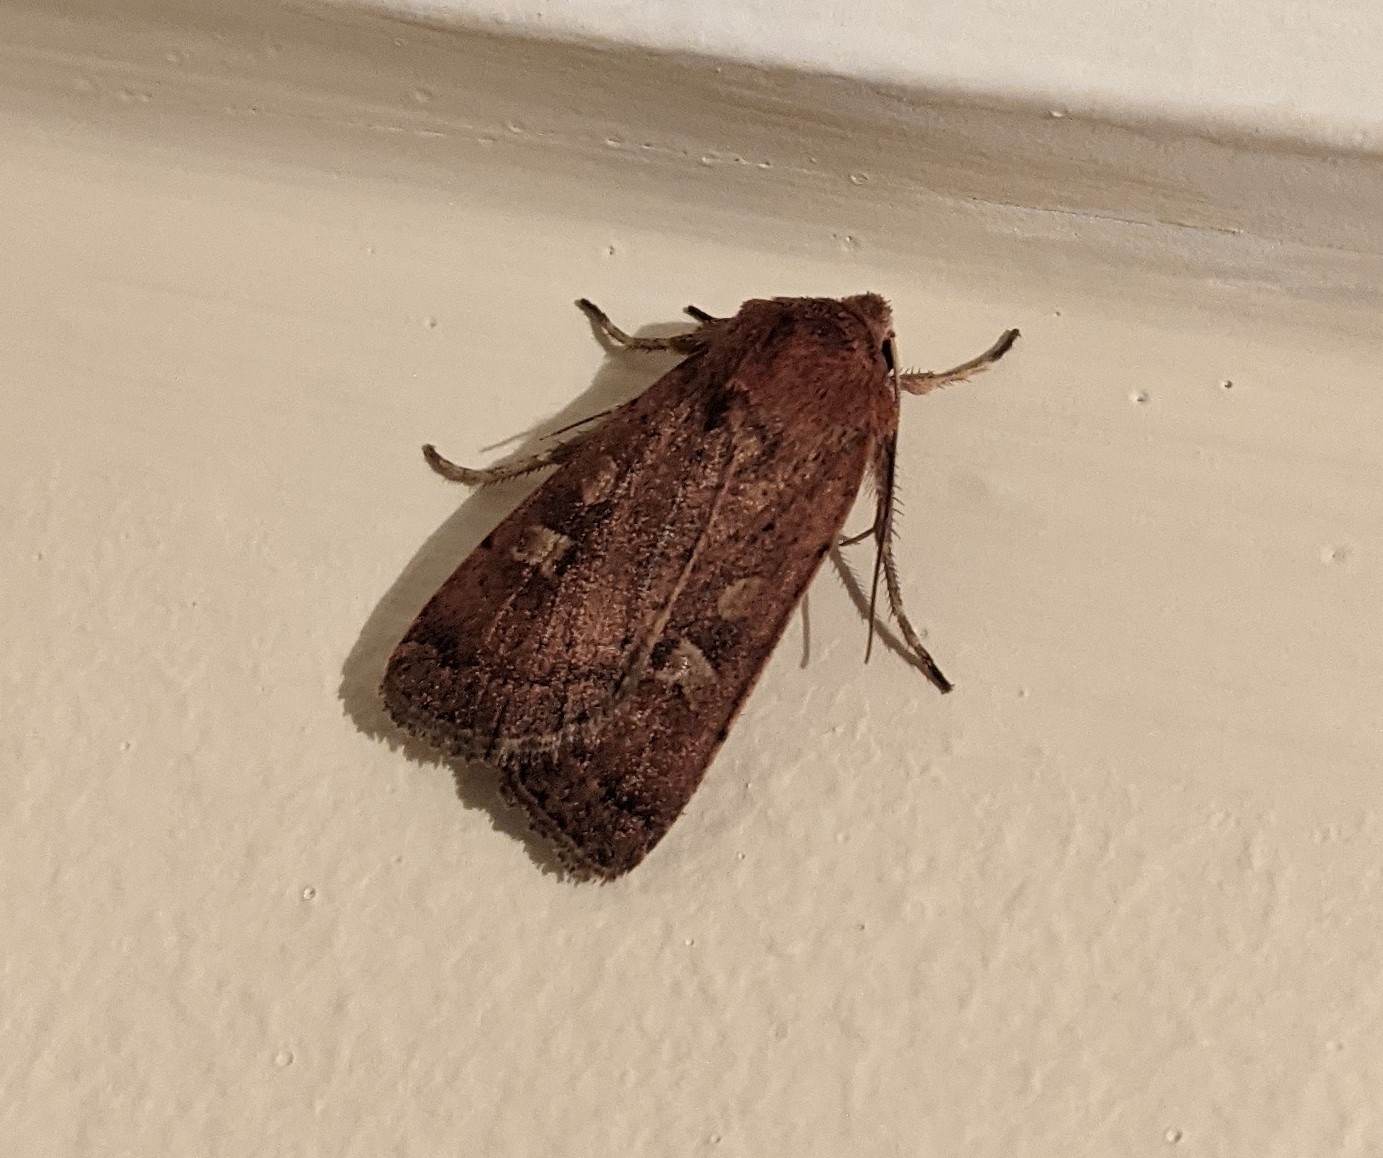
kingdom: Animalia
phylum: Arthropoda
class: Insecta
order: Lepidoptera
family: Noctuidae
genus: Xestia
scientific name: Xestia xanthographa
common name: Square-spot rustic
